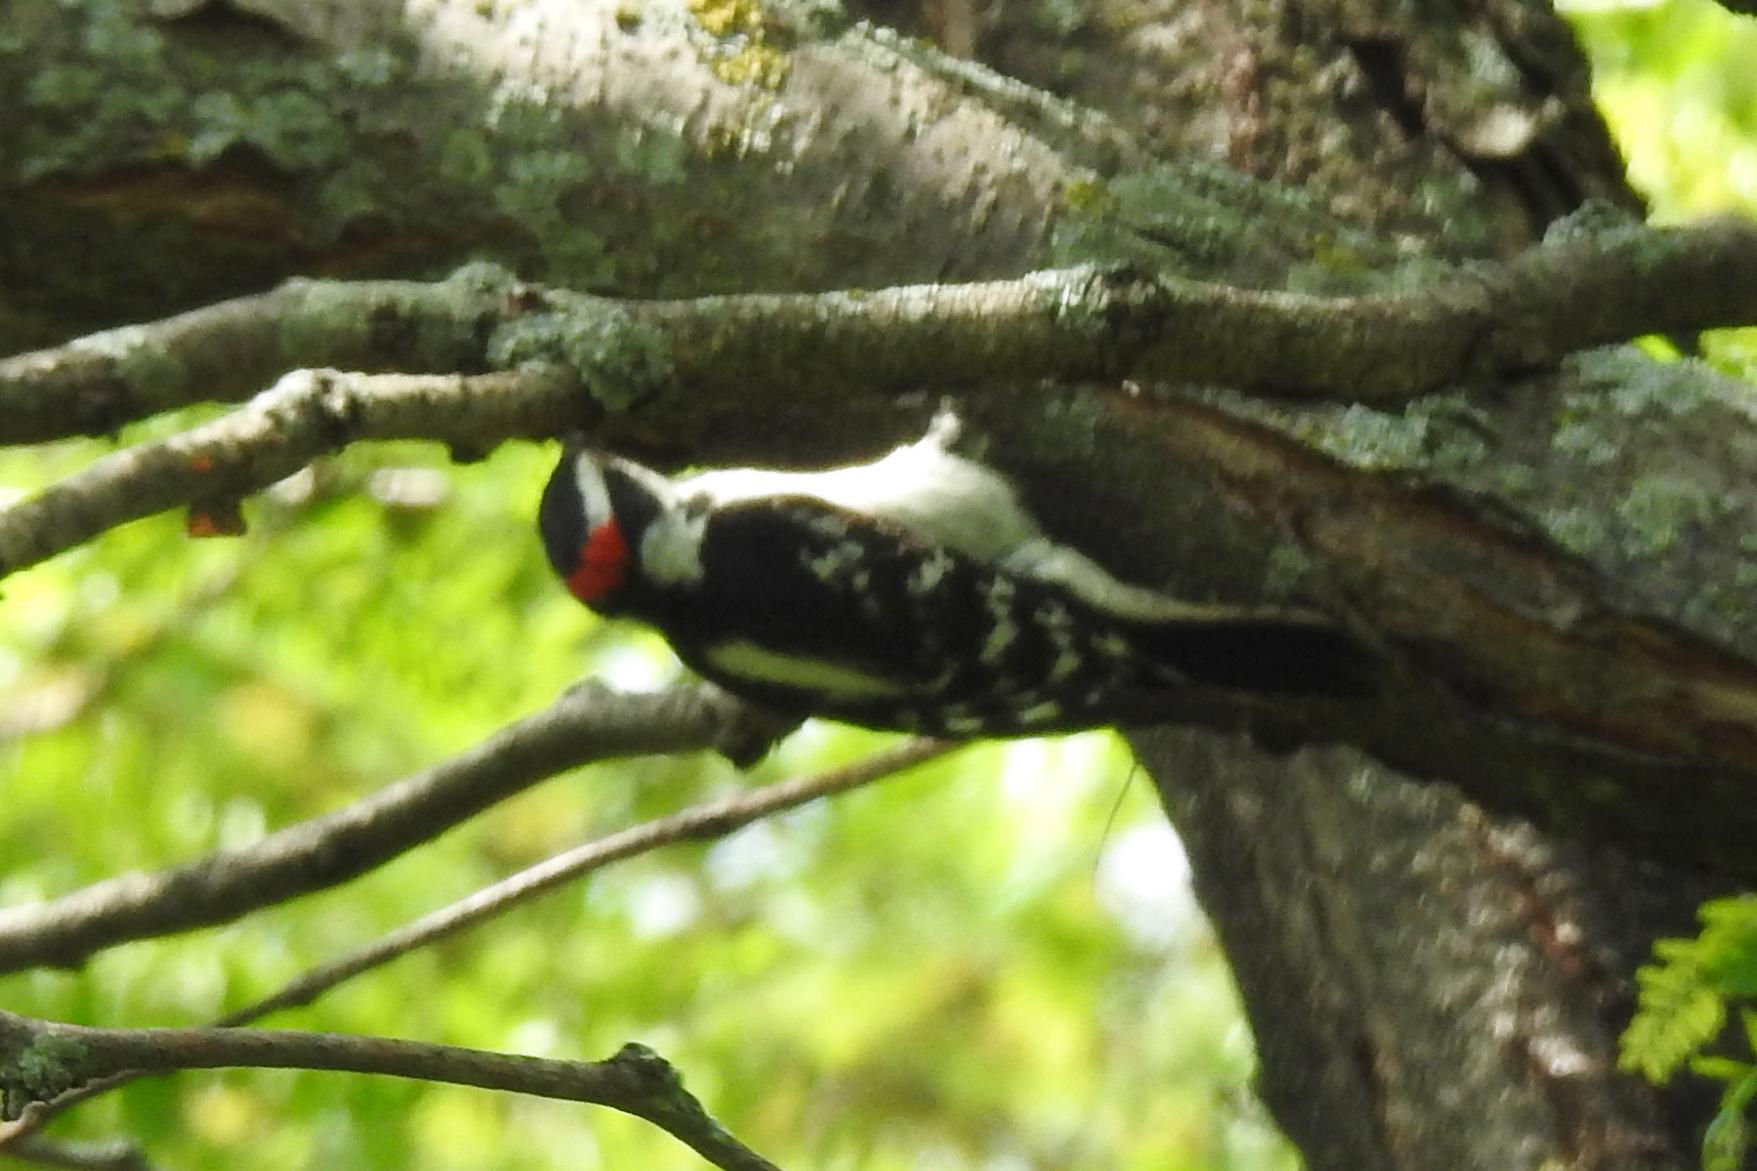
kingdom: Animalia
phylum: Chordata
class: Aves
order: Piciformes
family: Picidae
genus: Dryobates
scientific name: Dryobates pubescens
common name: Downy woodpecker
